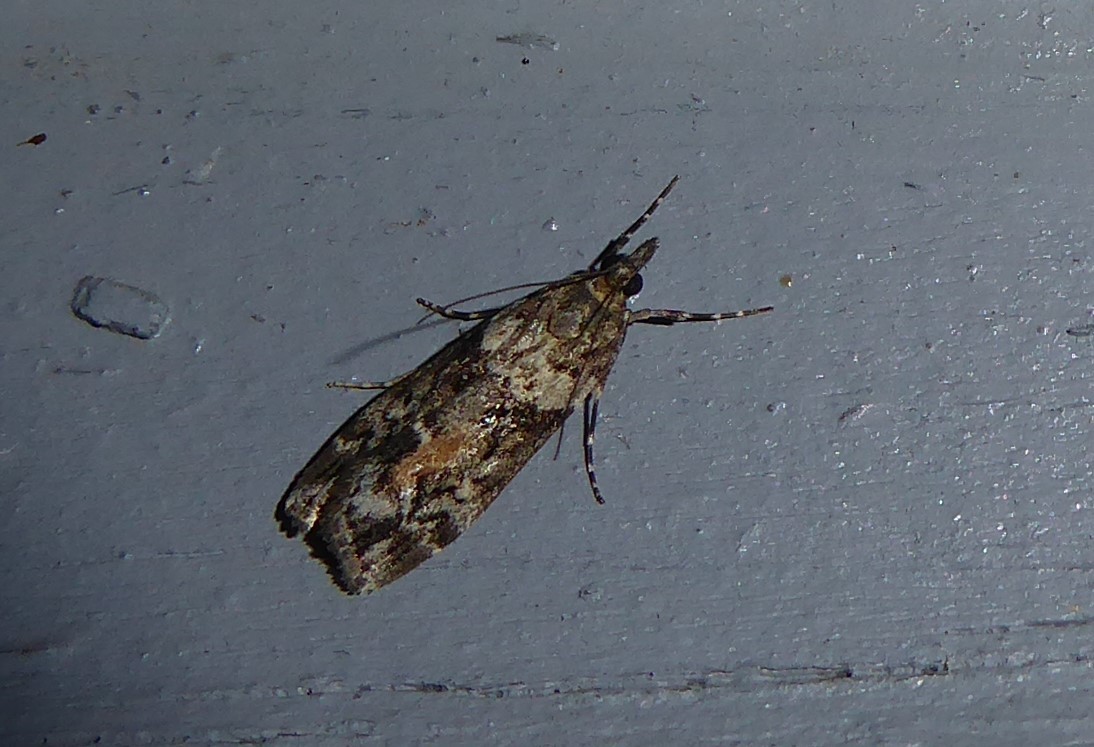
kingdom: Animalia
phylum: Arthropoda
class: Insecta
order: Lepidoptera
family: Crambidae
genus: Eudonia
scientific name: Eudonia submarginalis
